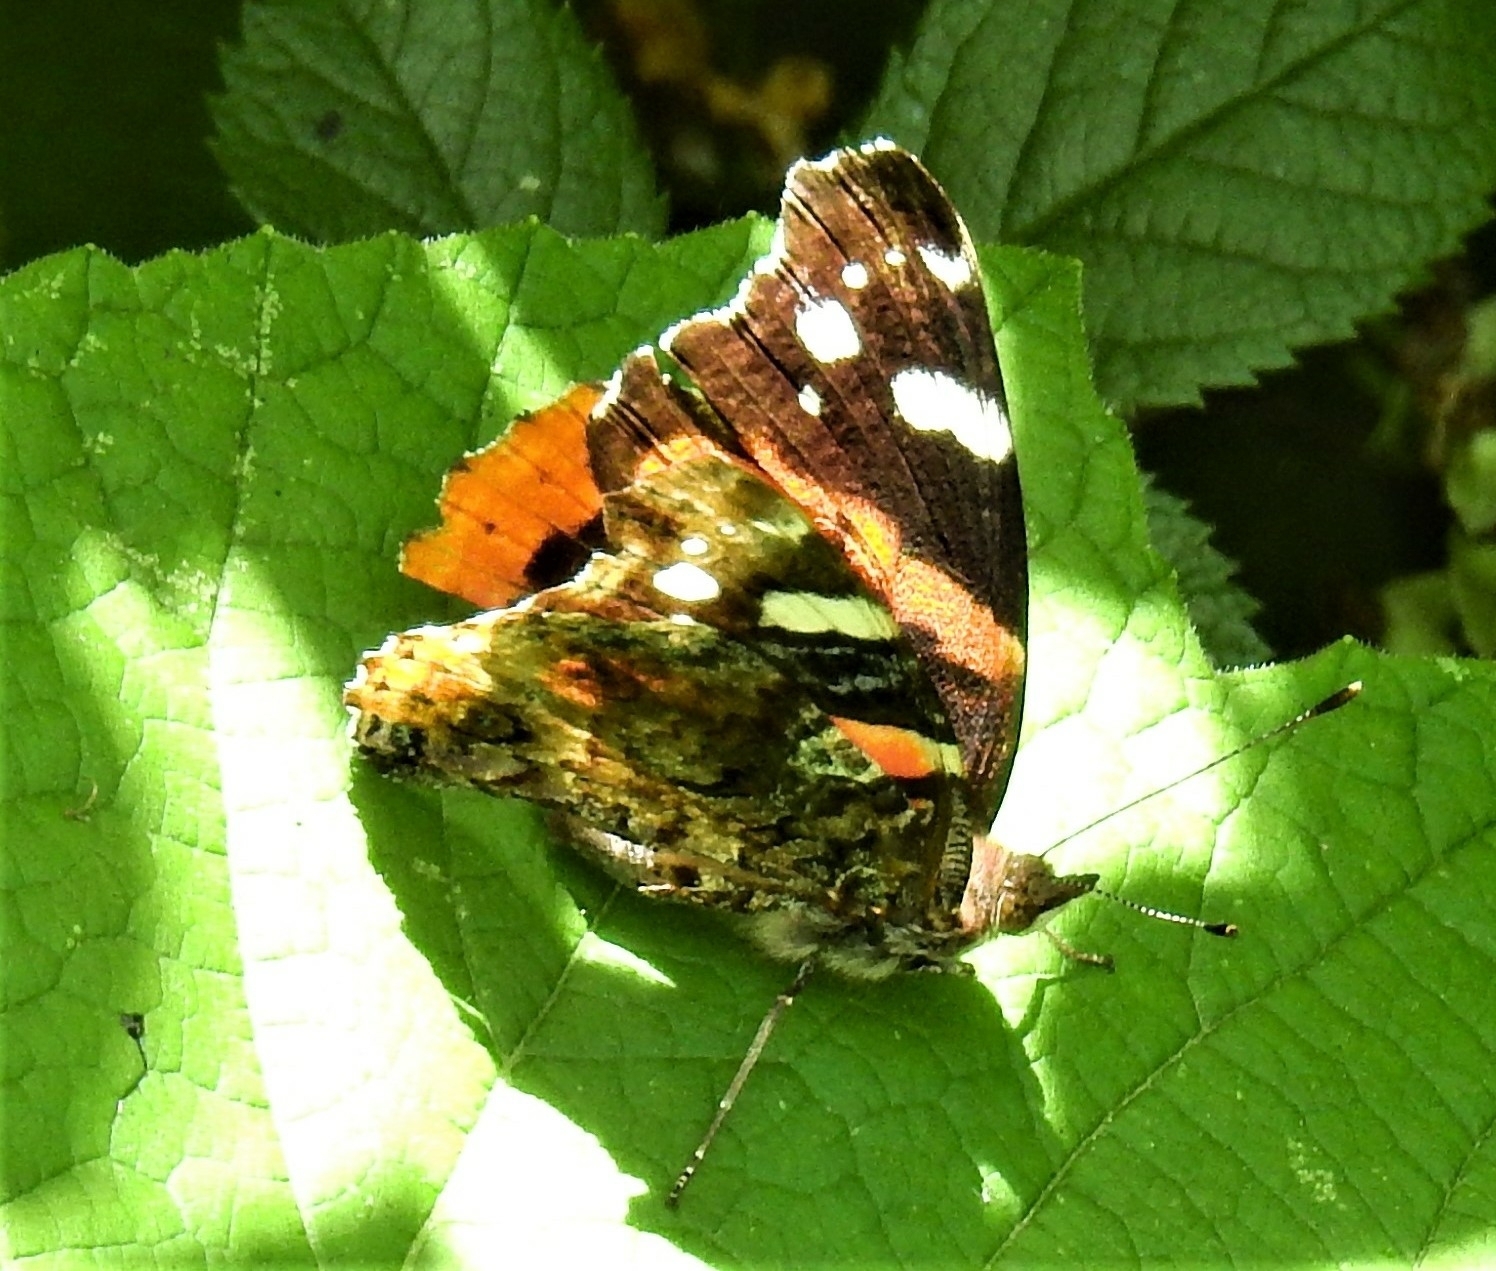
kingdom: Animalia
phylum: Arthropoda
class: Insecta
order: Lepidoptera
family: Nymphalidae
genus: Vanessa
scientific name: Vanessa atalanta
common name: Red admiral
